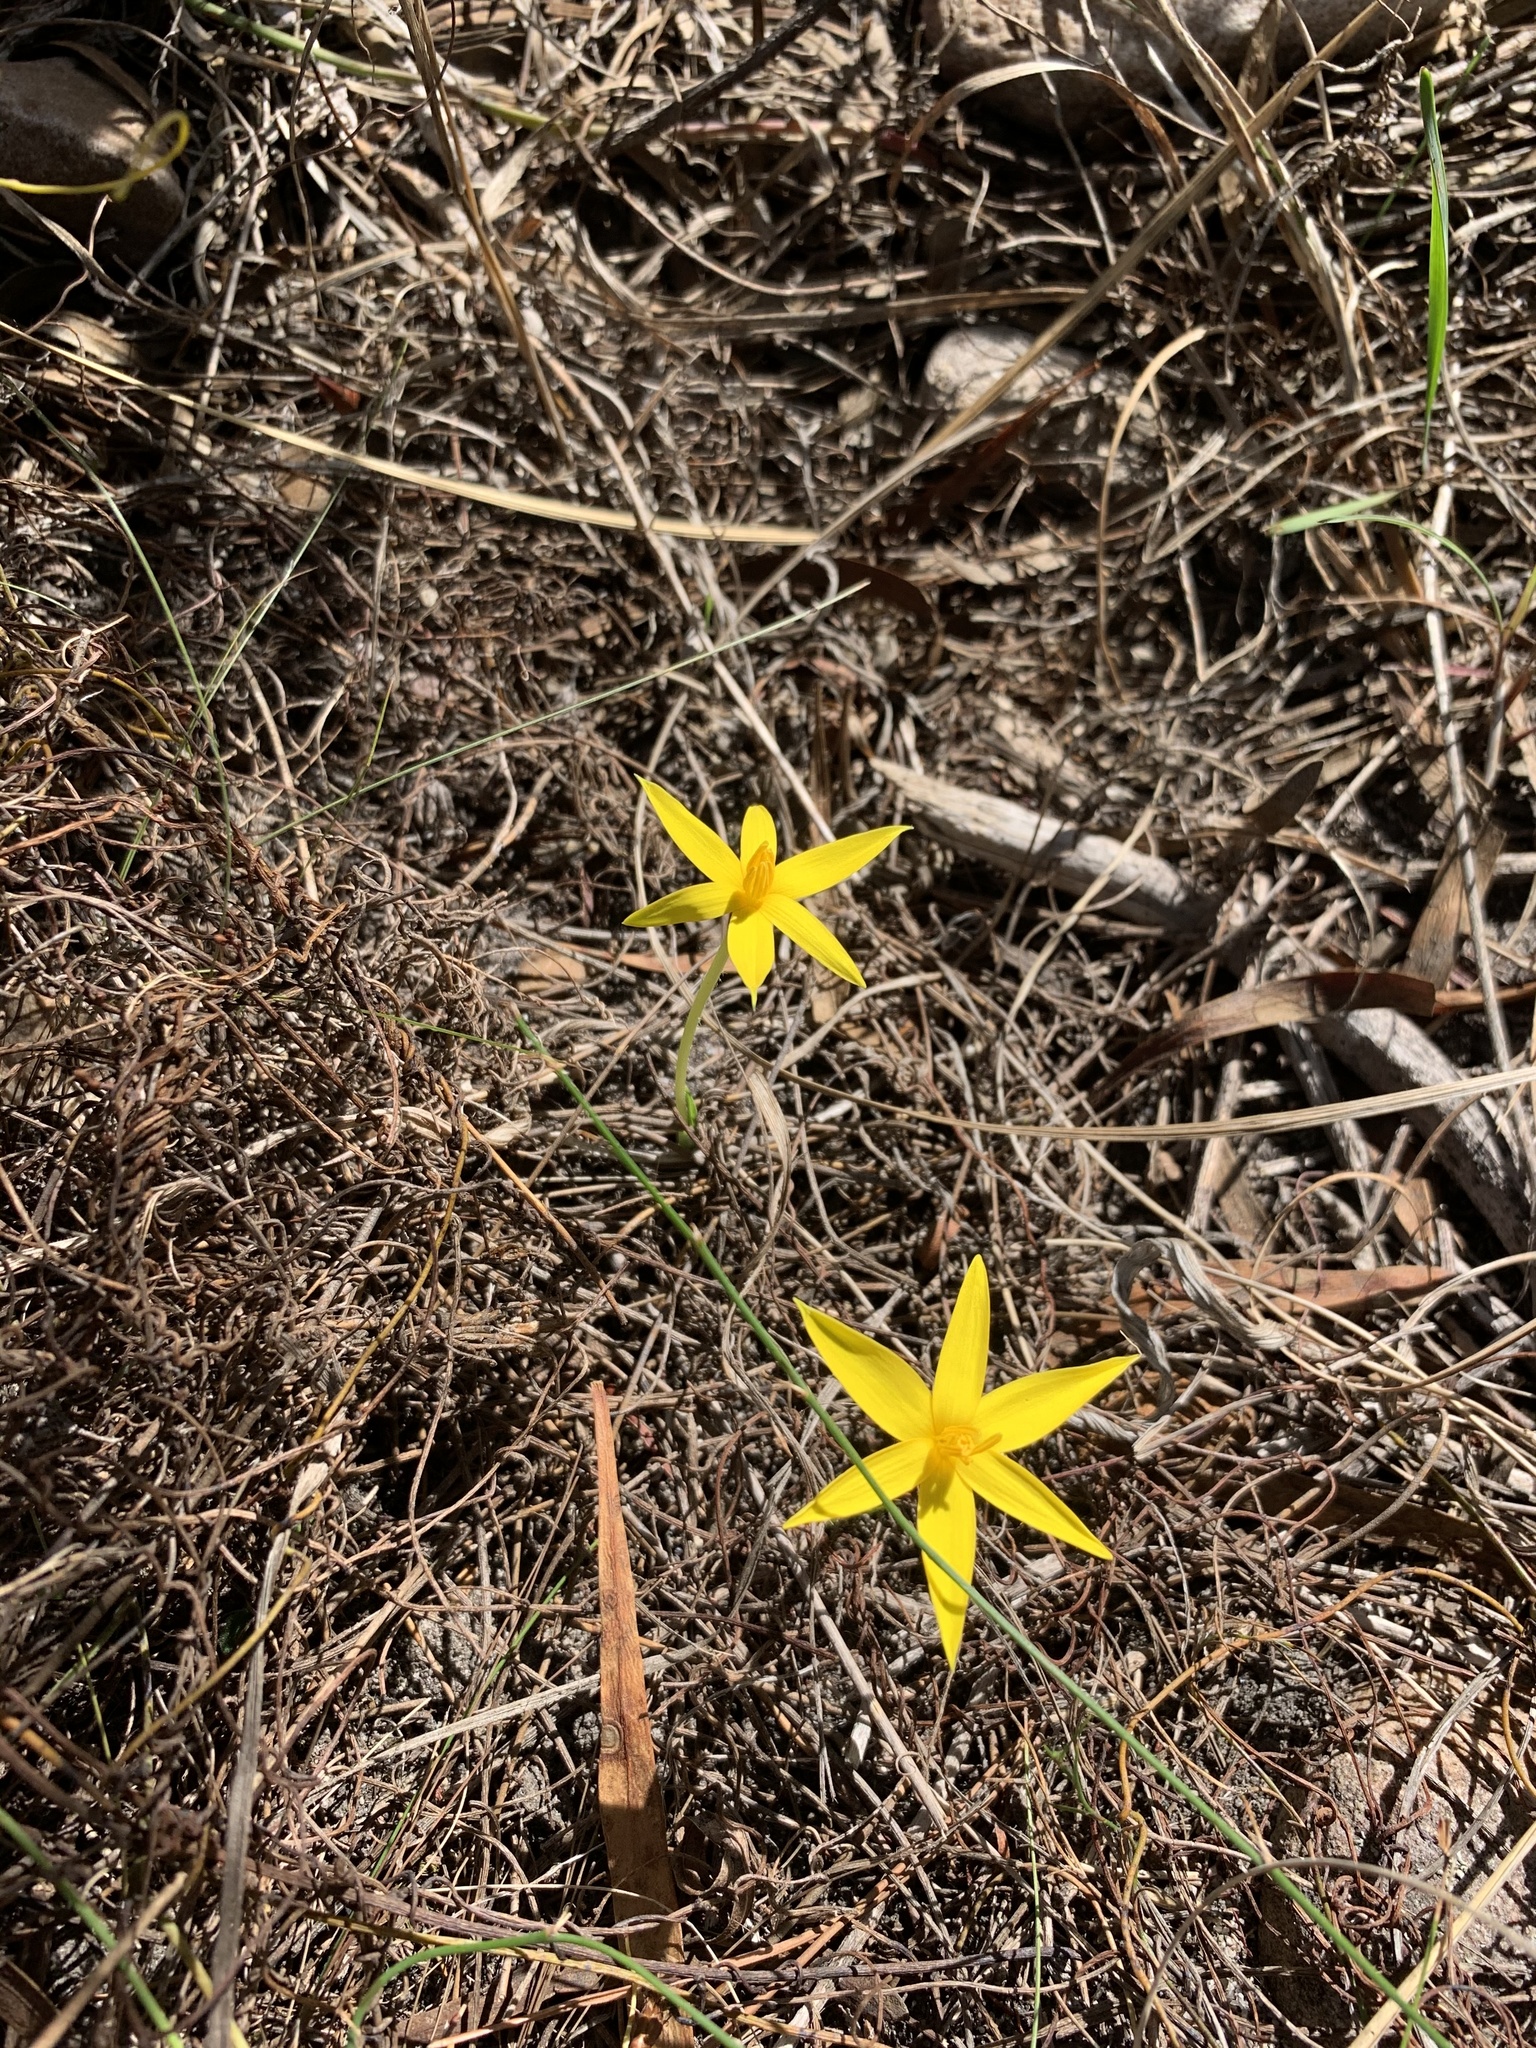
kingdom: Plantae
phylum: Tracheophyta
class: Liliopsida
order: Asparagales
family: Hypoxidaceae
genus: Empodium
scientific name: Empodium plicatum
